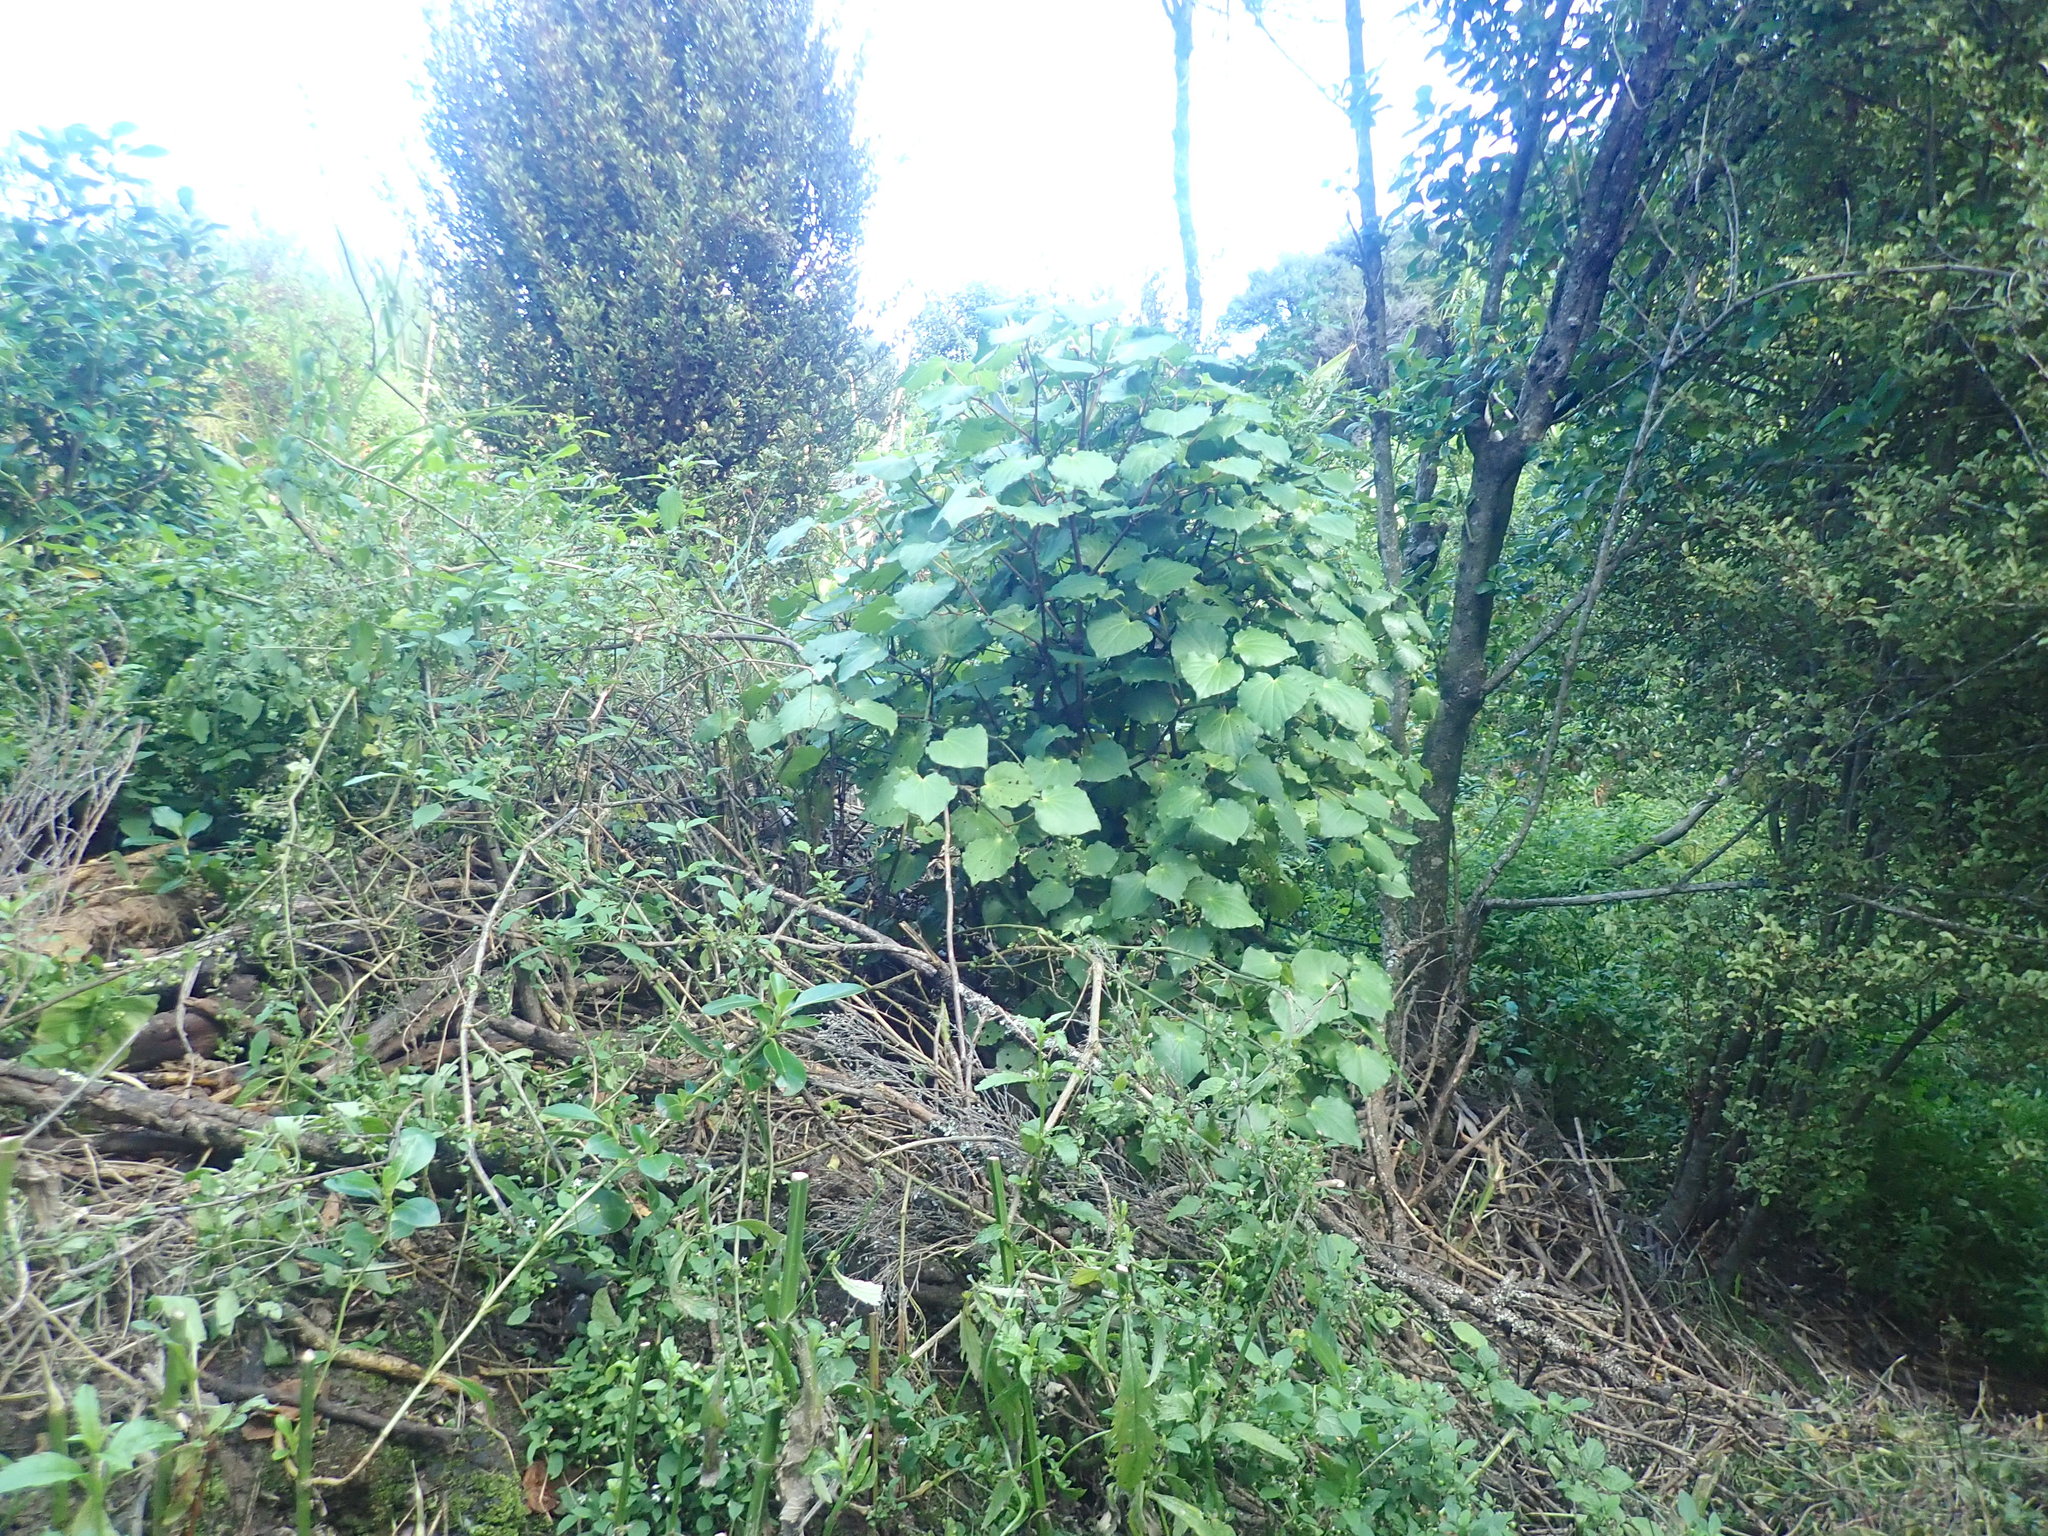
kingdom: Plantae
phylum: Tracheophyta
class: Magnoliopsida
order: Piperales
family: Piperaceae
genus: Macropiper
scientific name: Macropiper excelsum
